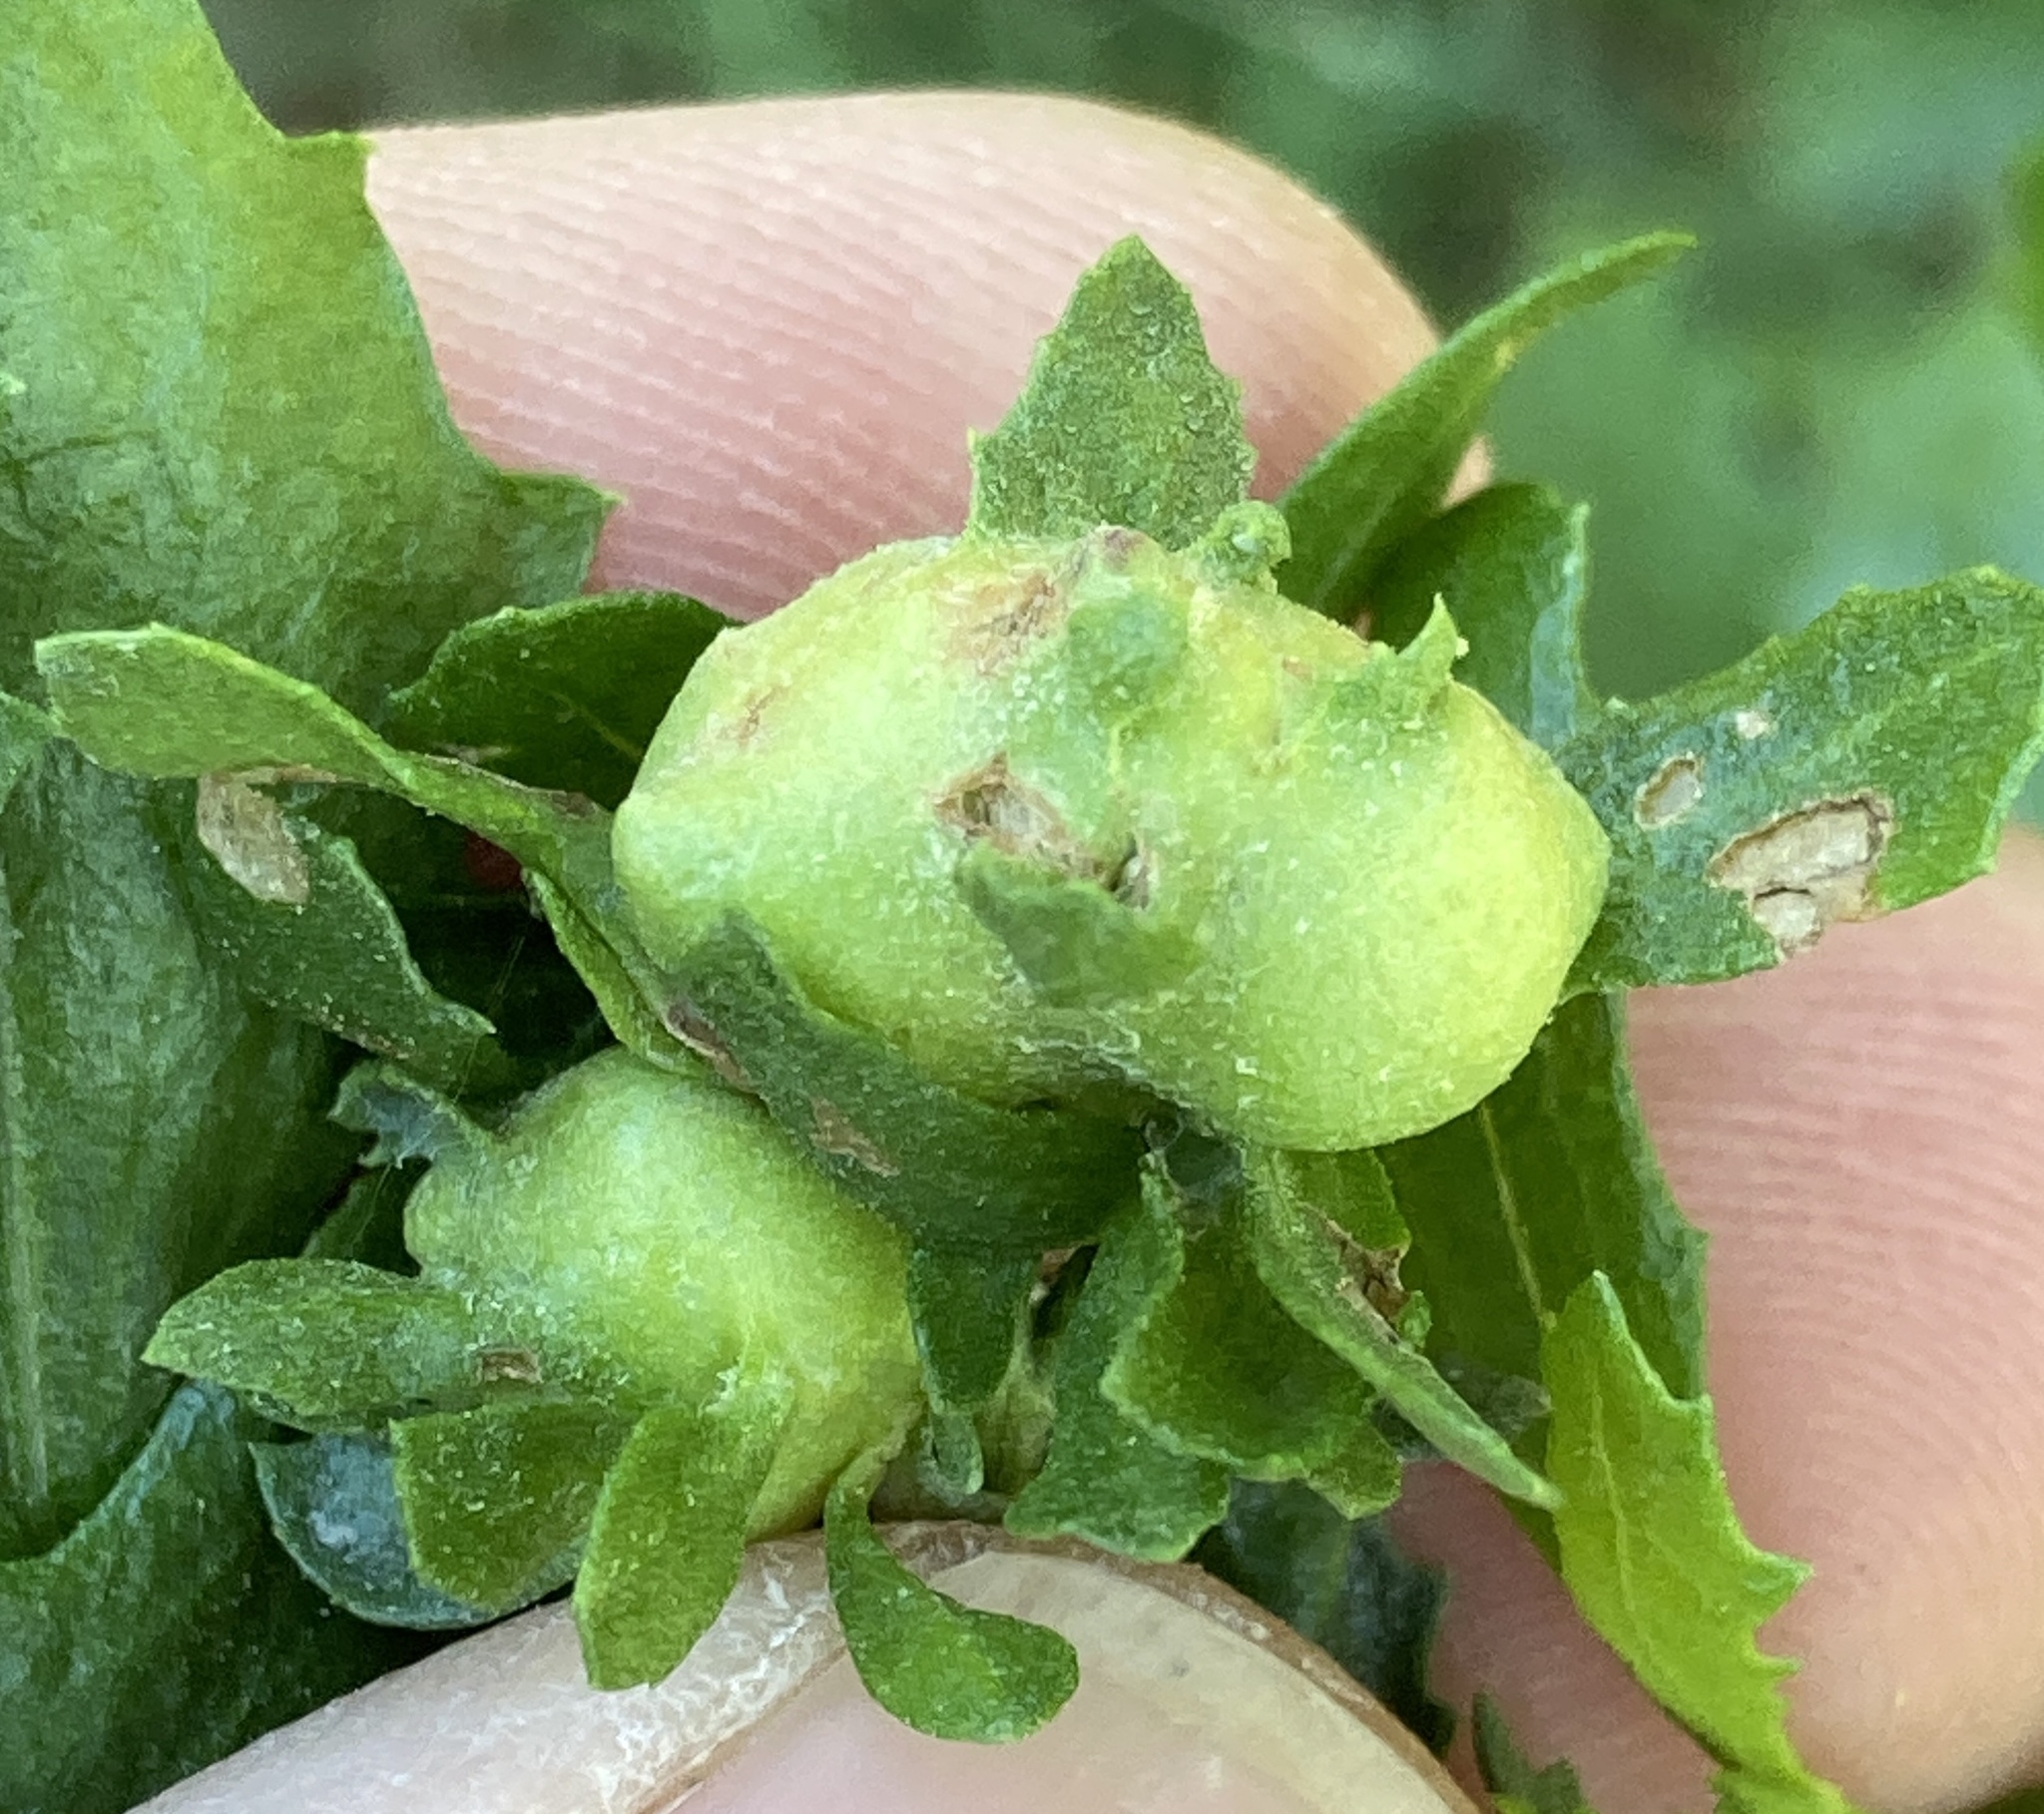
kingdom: Animalia
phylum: Arthropoda
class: Insecta
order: Diptera
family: Cecidomyiidae
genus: Rhopalomyia
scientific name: Rhopalomyia californica
